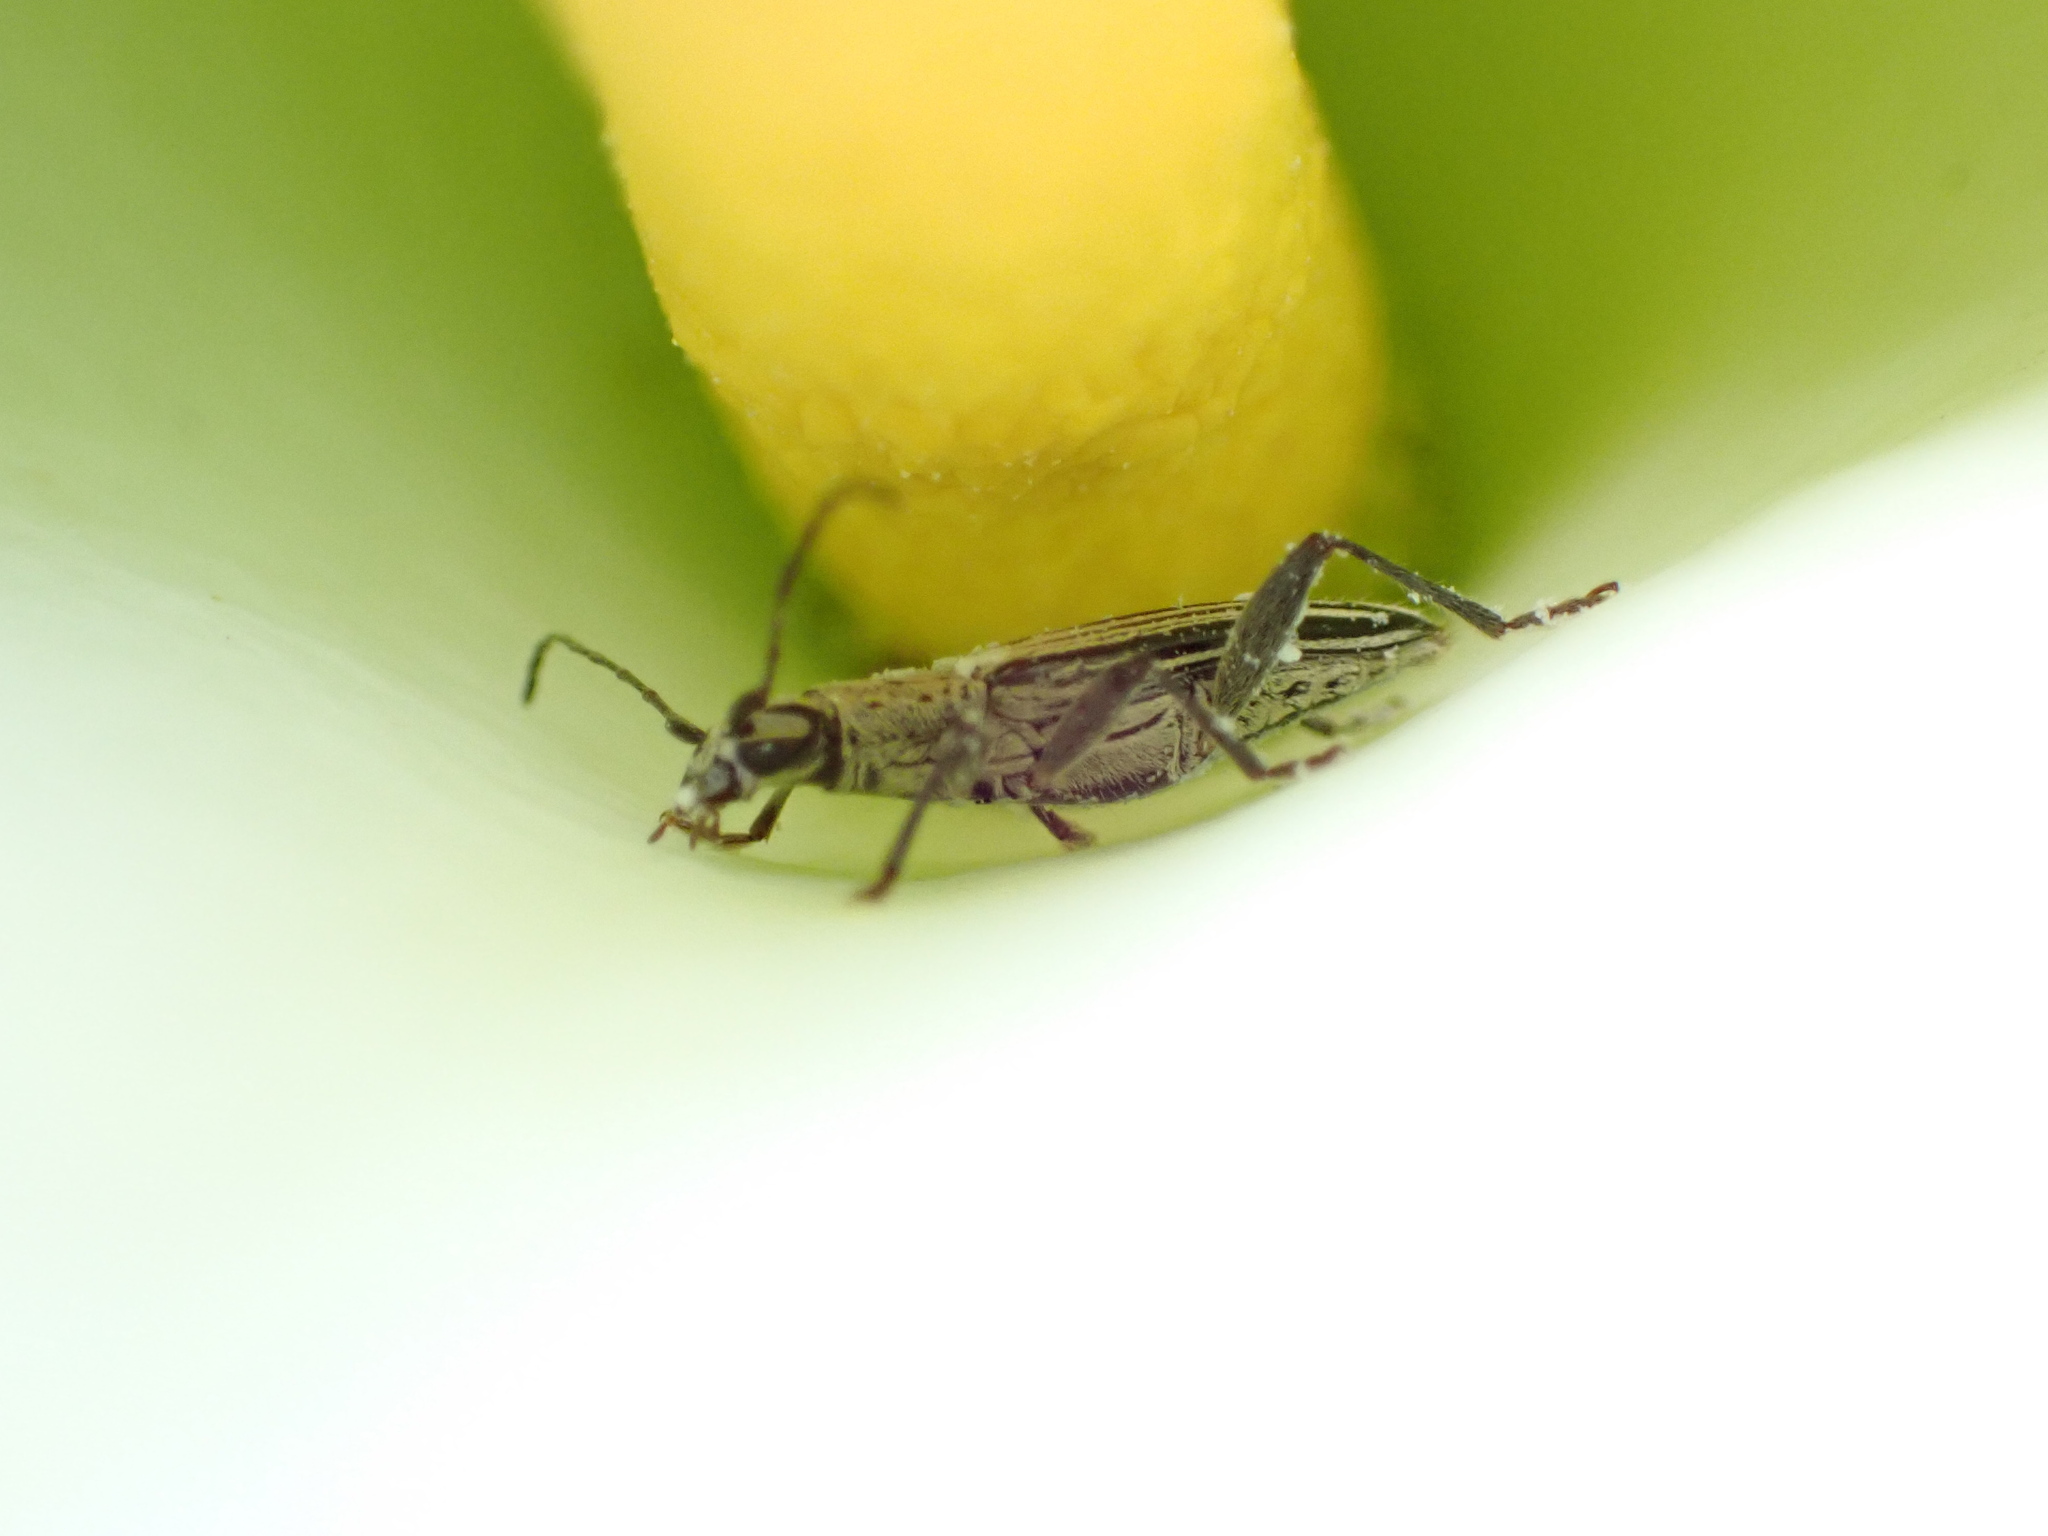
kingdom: Animalia
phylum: Arthropoda
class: Insecta
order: Coleoptera
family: Cerambycidae
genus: Coptomma
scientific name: Coptomma sulcatum
